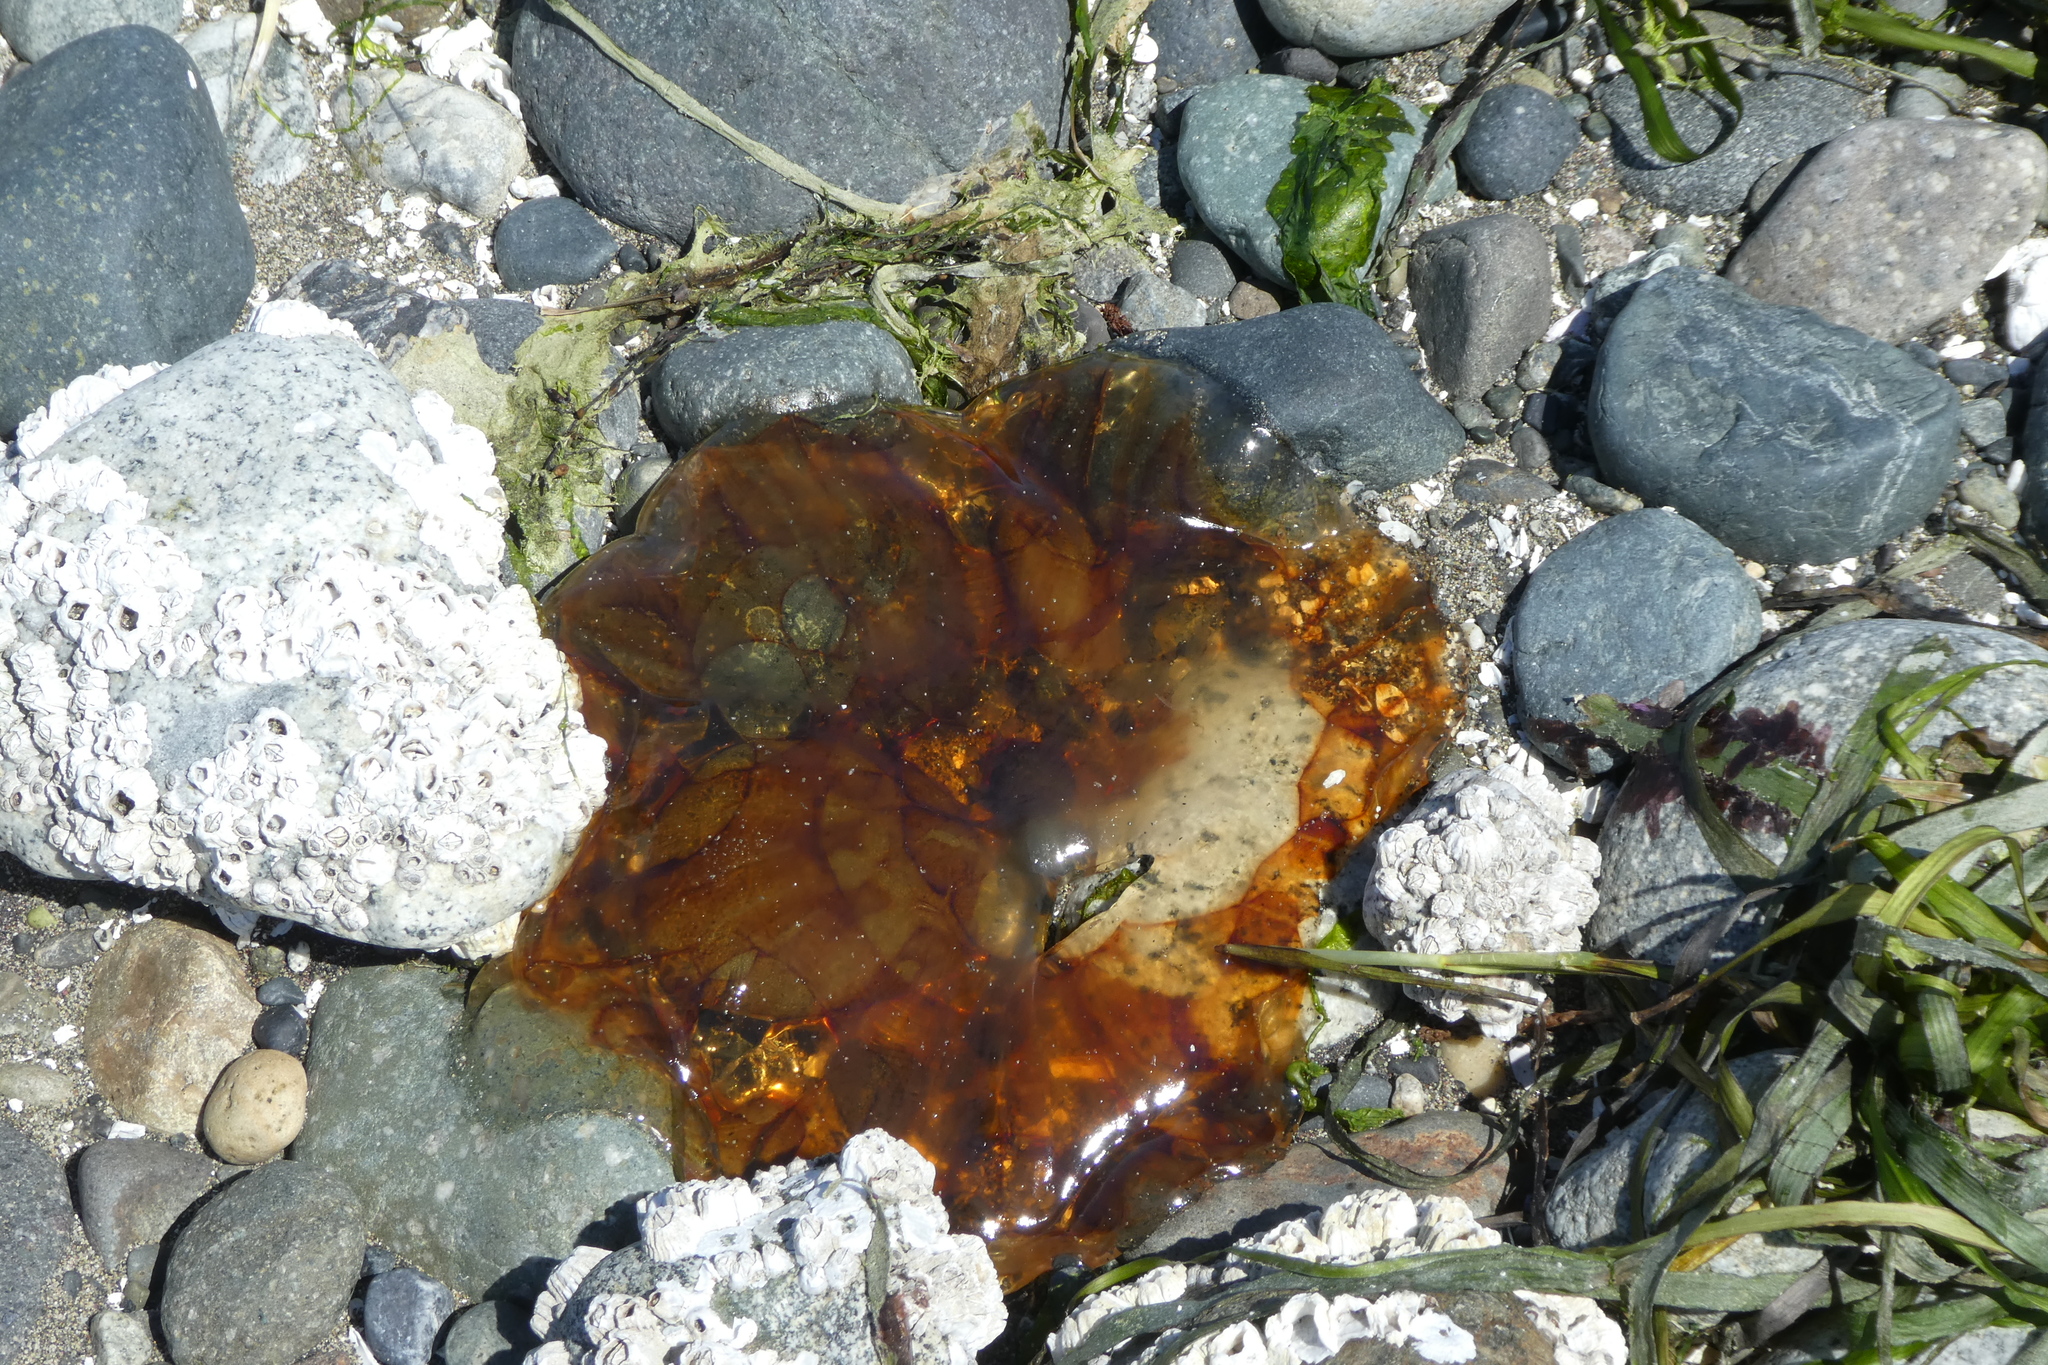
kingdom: Animalia
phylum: Cnidaria
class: Scyphozoa
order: Semaeostomeae
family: Cyaneidae
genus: Cyanea
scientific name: Cyanea ferruginea
